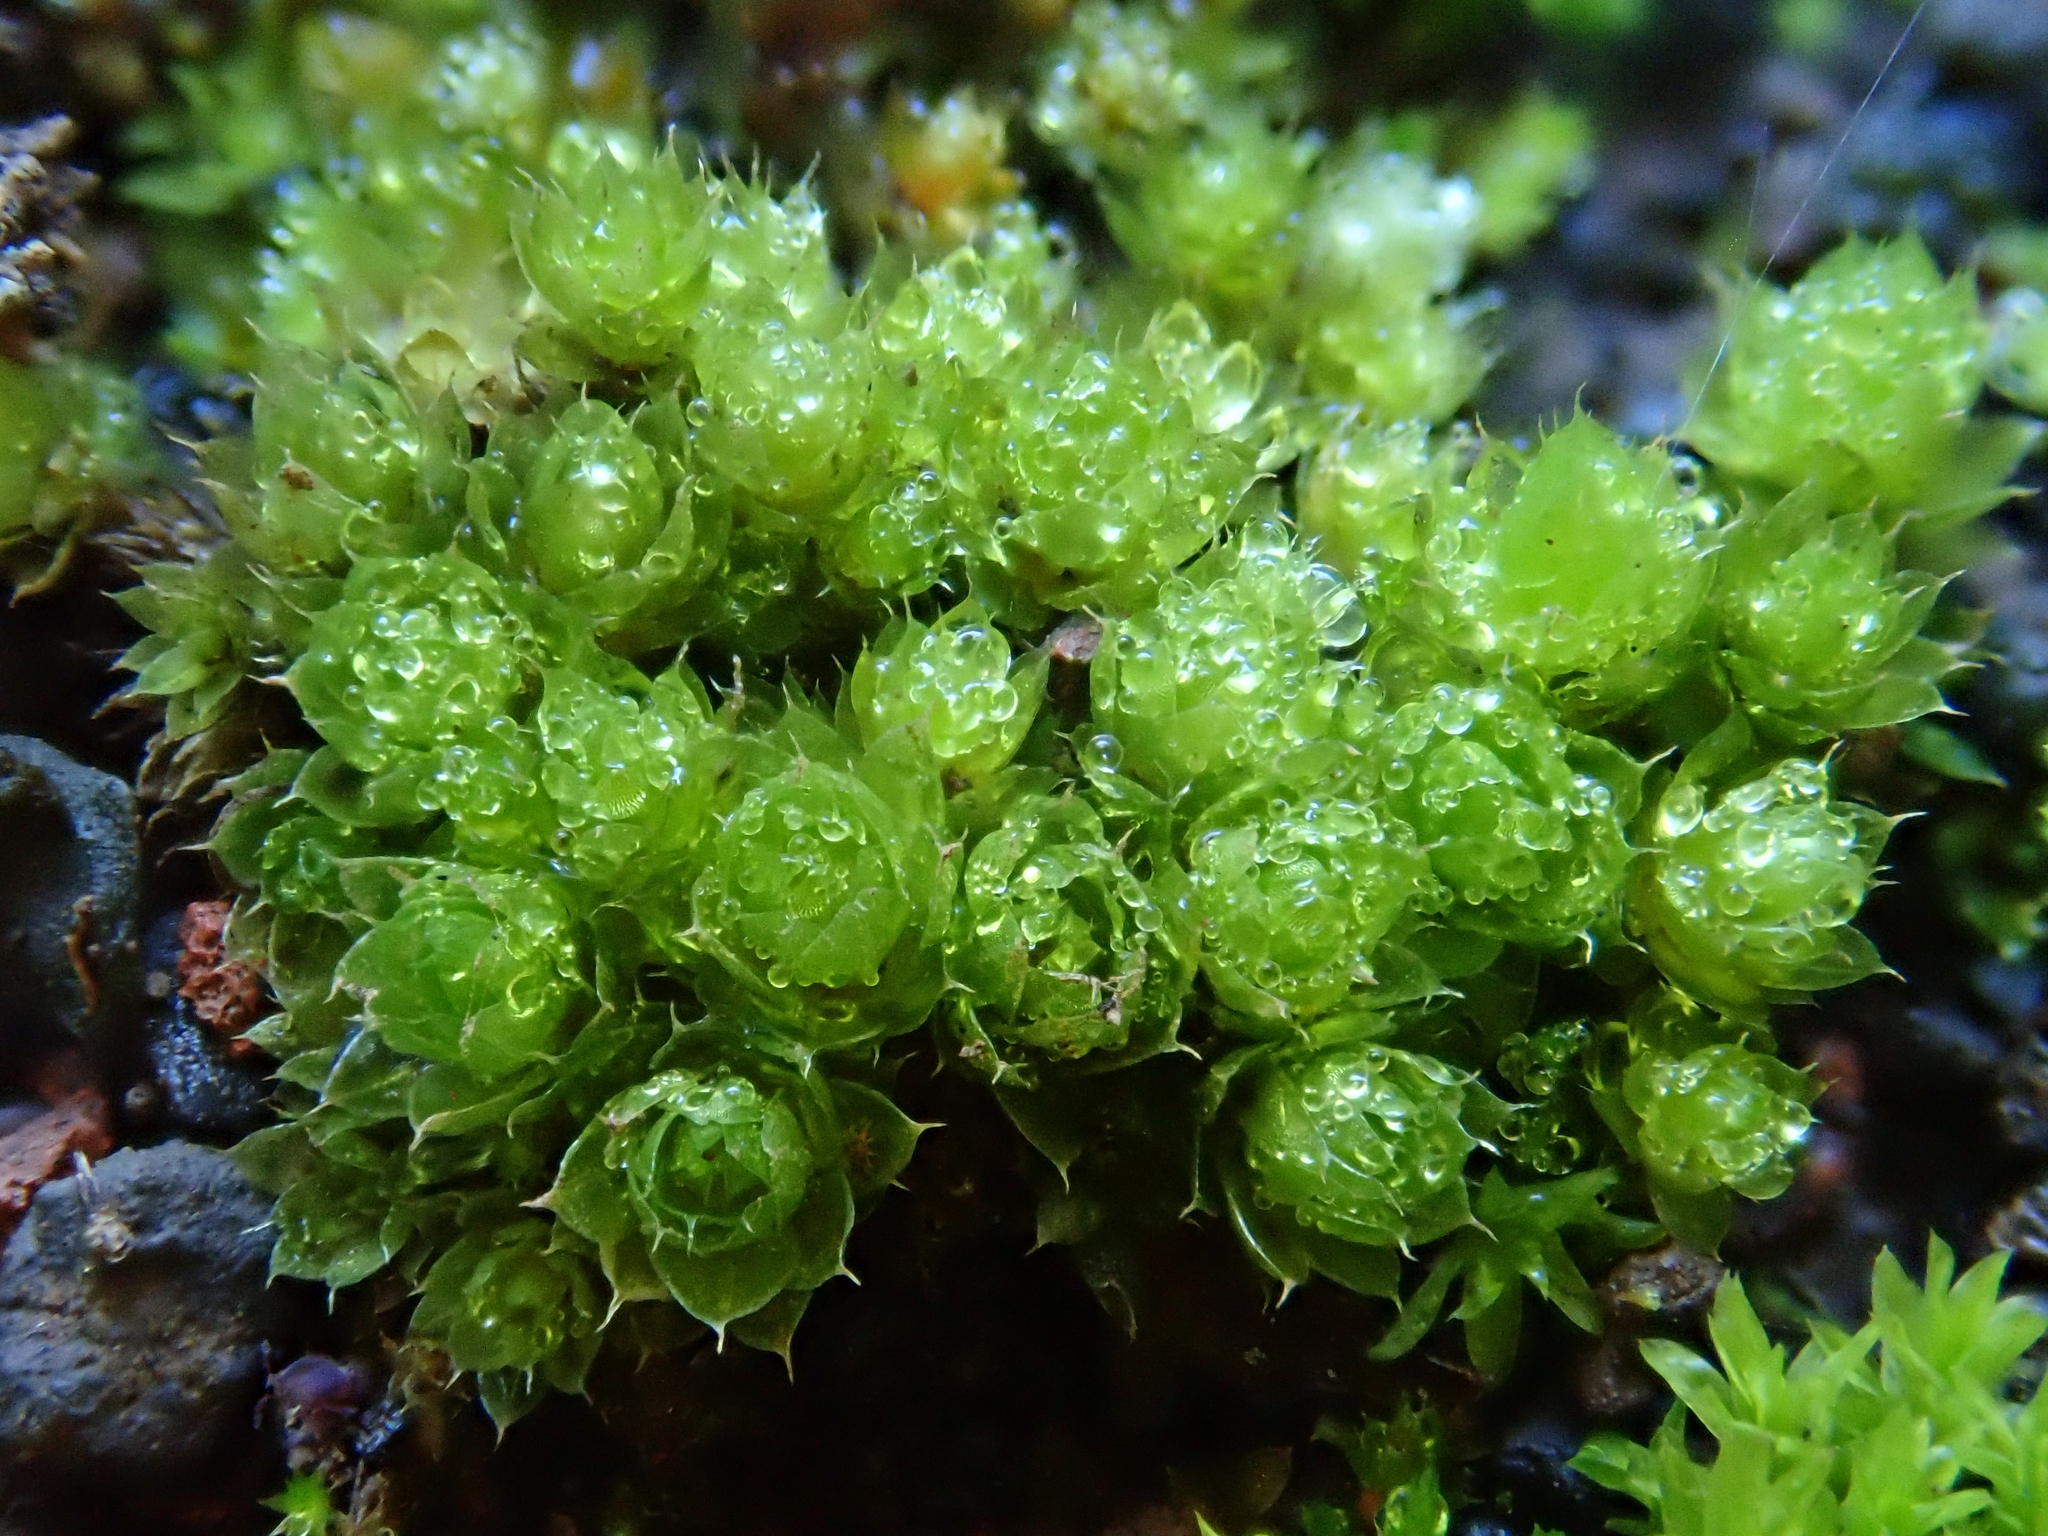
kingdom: Plantae
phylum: Bryophyta
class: Bryopsida
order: Bryales
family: Bryaceae
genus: Rosulabryum
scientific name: Rosulabryum capillare
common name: Capillary thread-moss
